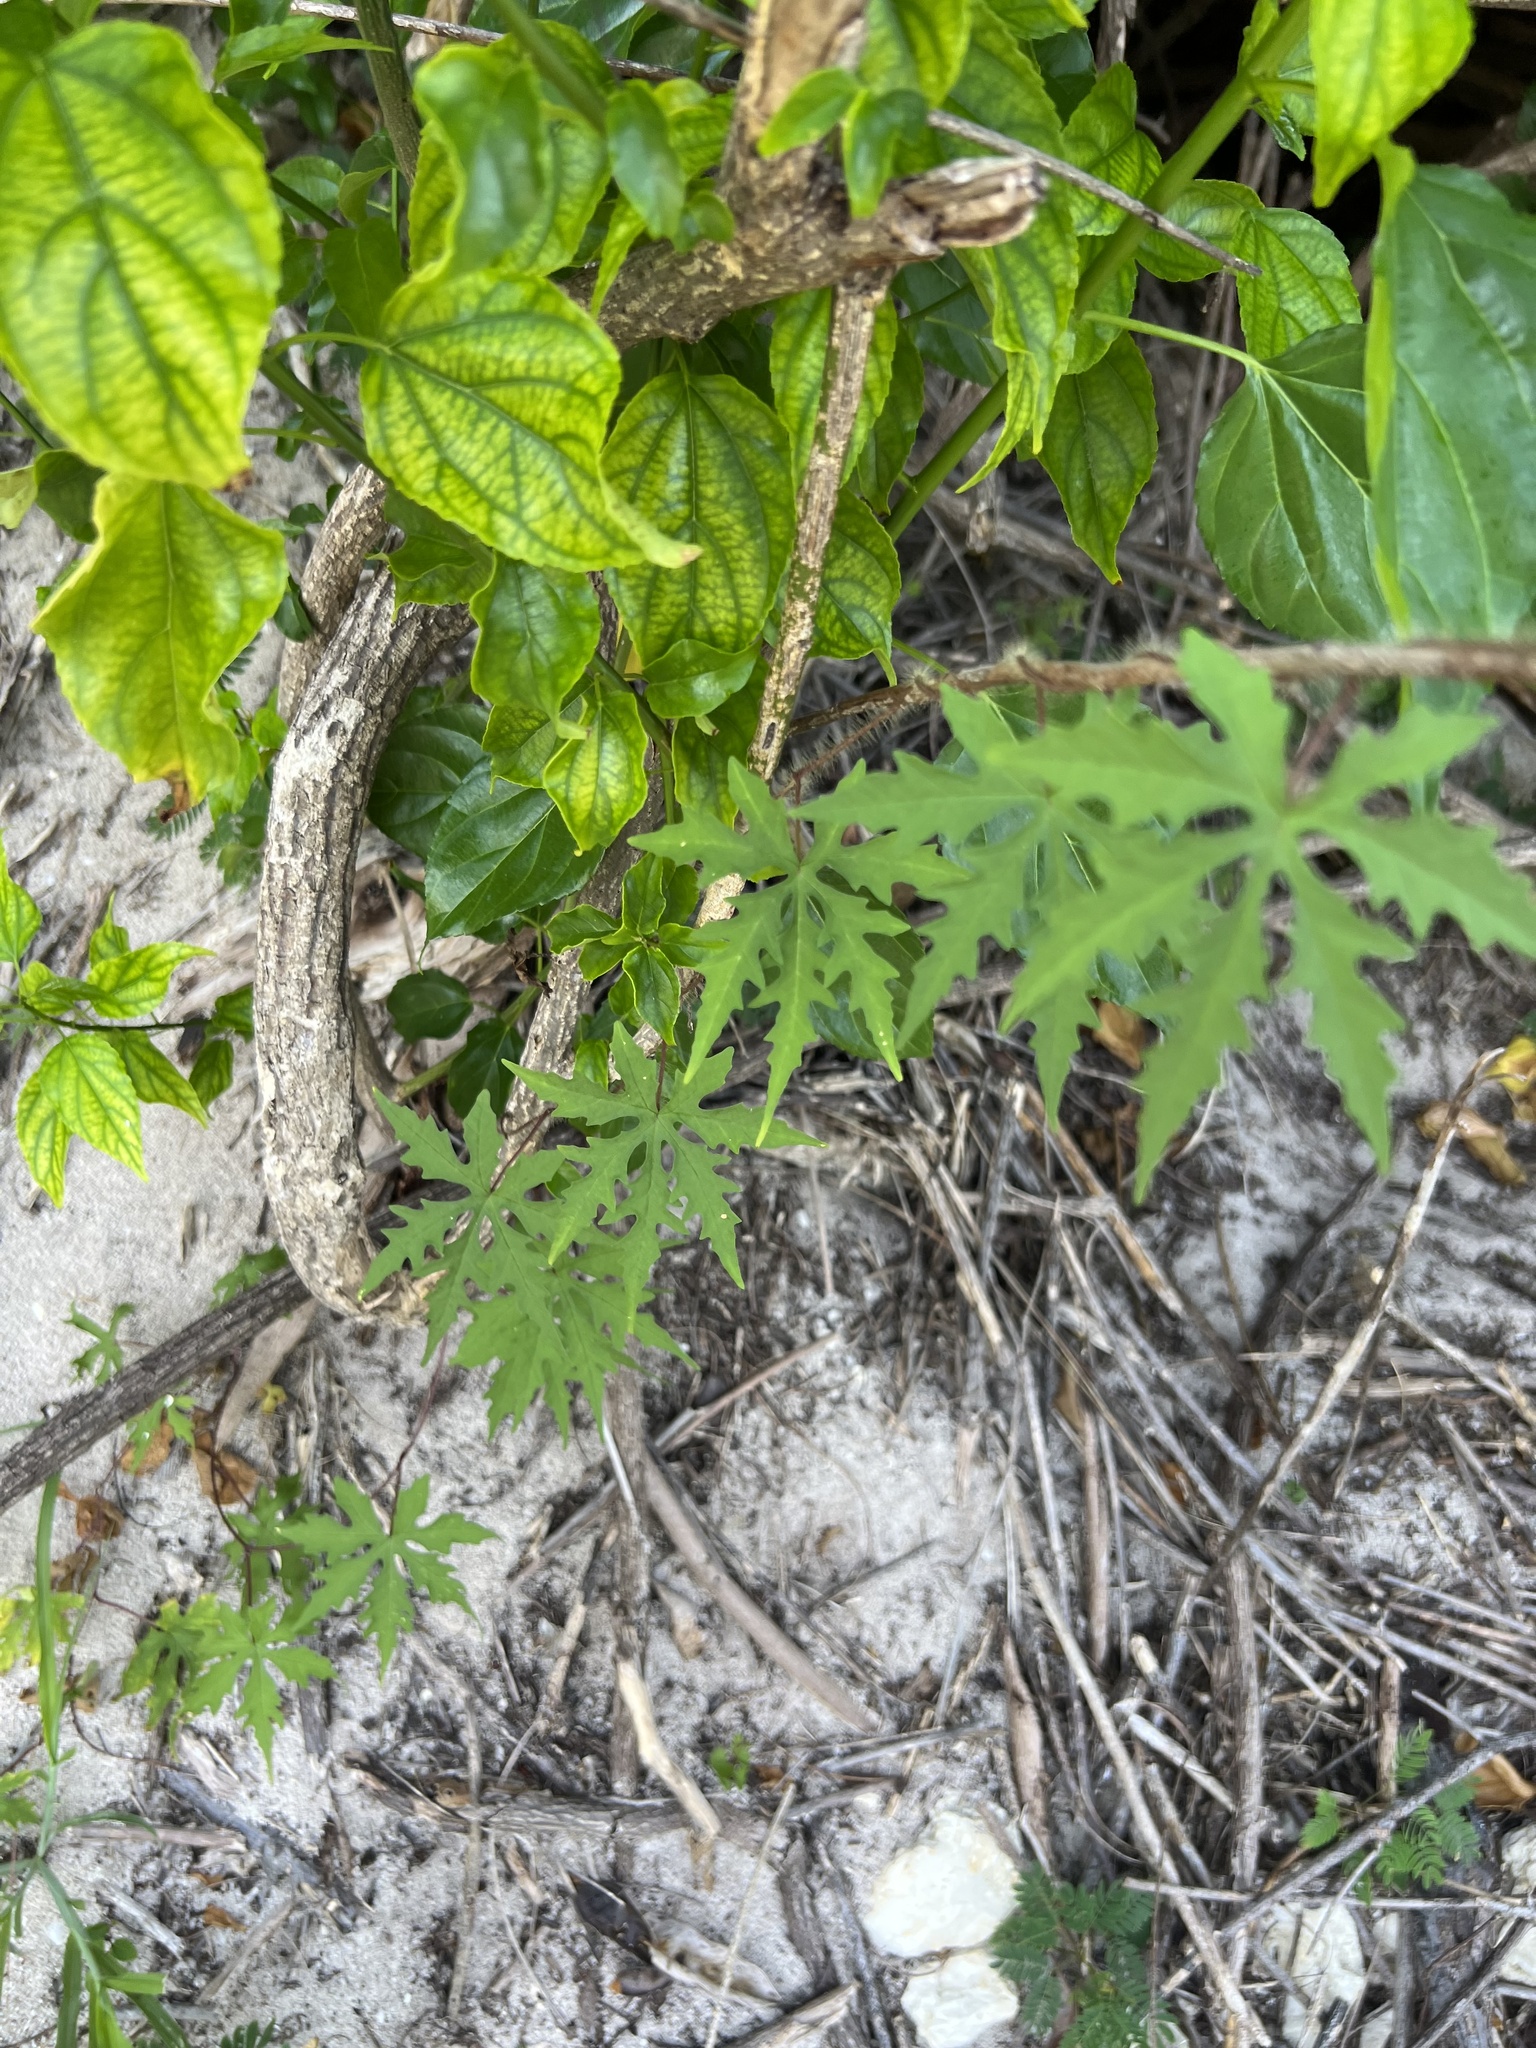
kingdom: Plantae
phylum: Tracheophyta
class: Magnoliopsida
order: Solanales
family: Convolvulaceae
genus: Distimake
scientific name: Distimake dissectus
